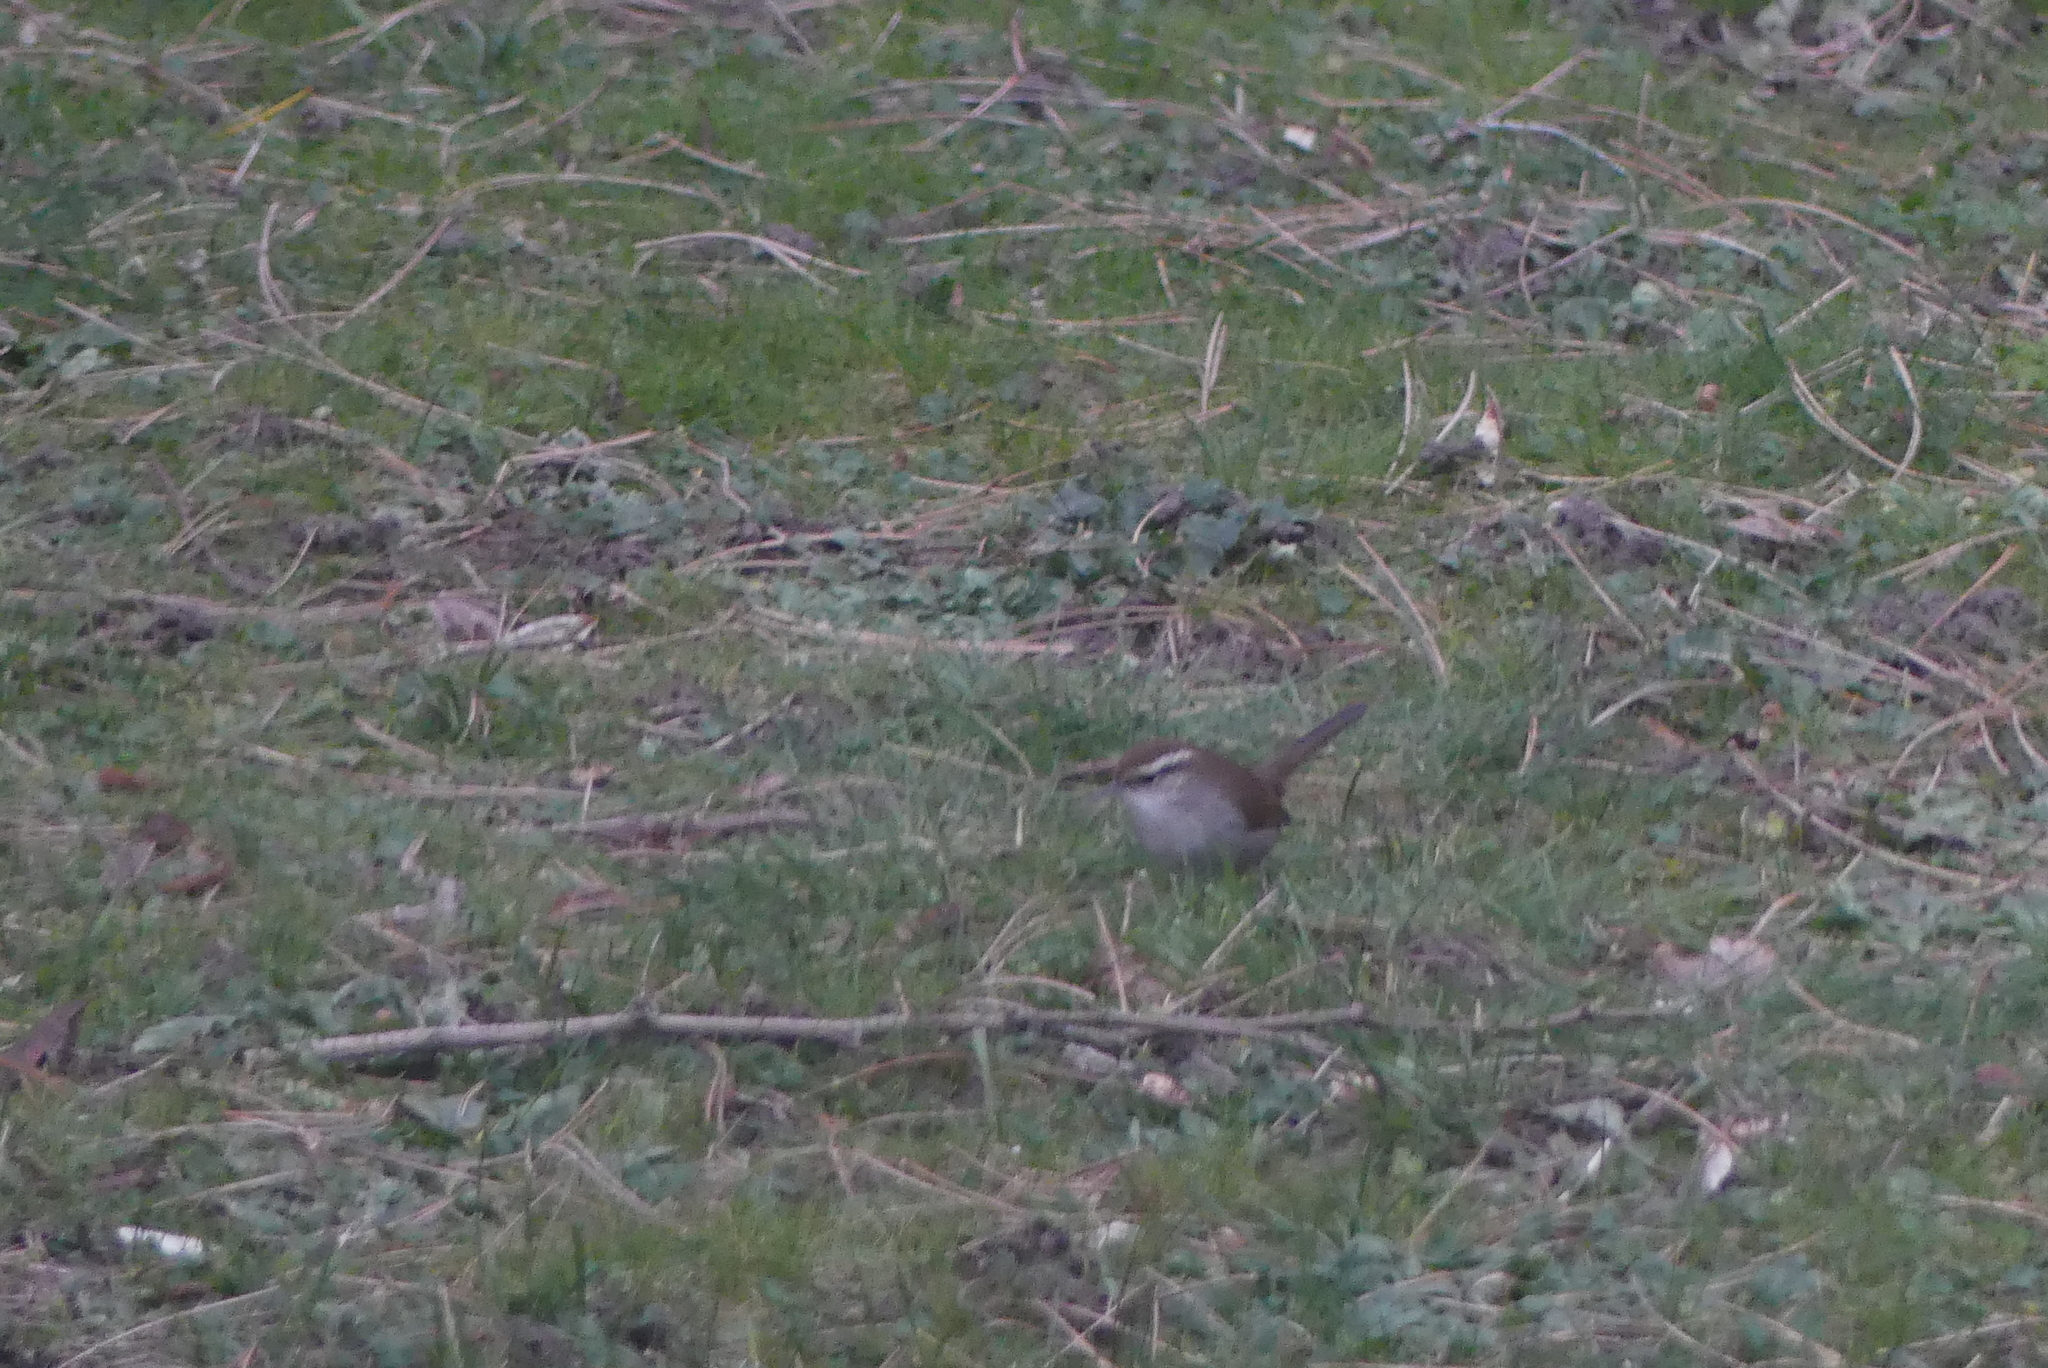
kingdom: Animalia
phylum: Chordata
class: Aves
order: Passeriformes
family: Troglodytidae
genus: Thryomanes
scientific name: Thryomanes bewickii
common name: Bewick's wren
